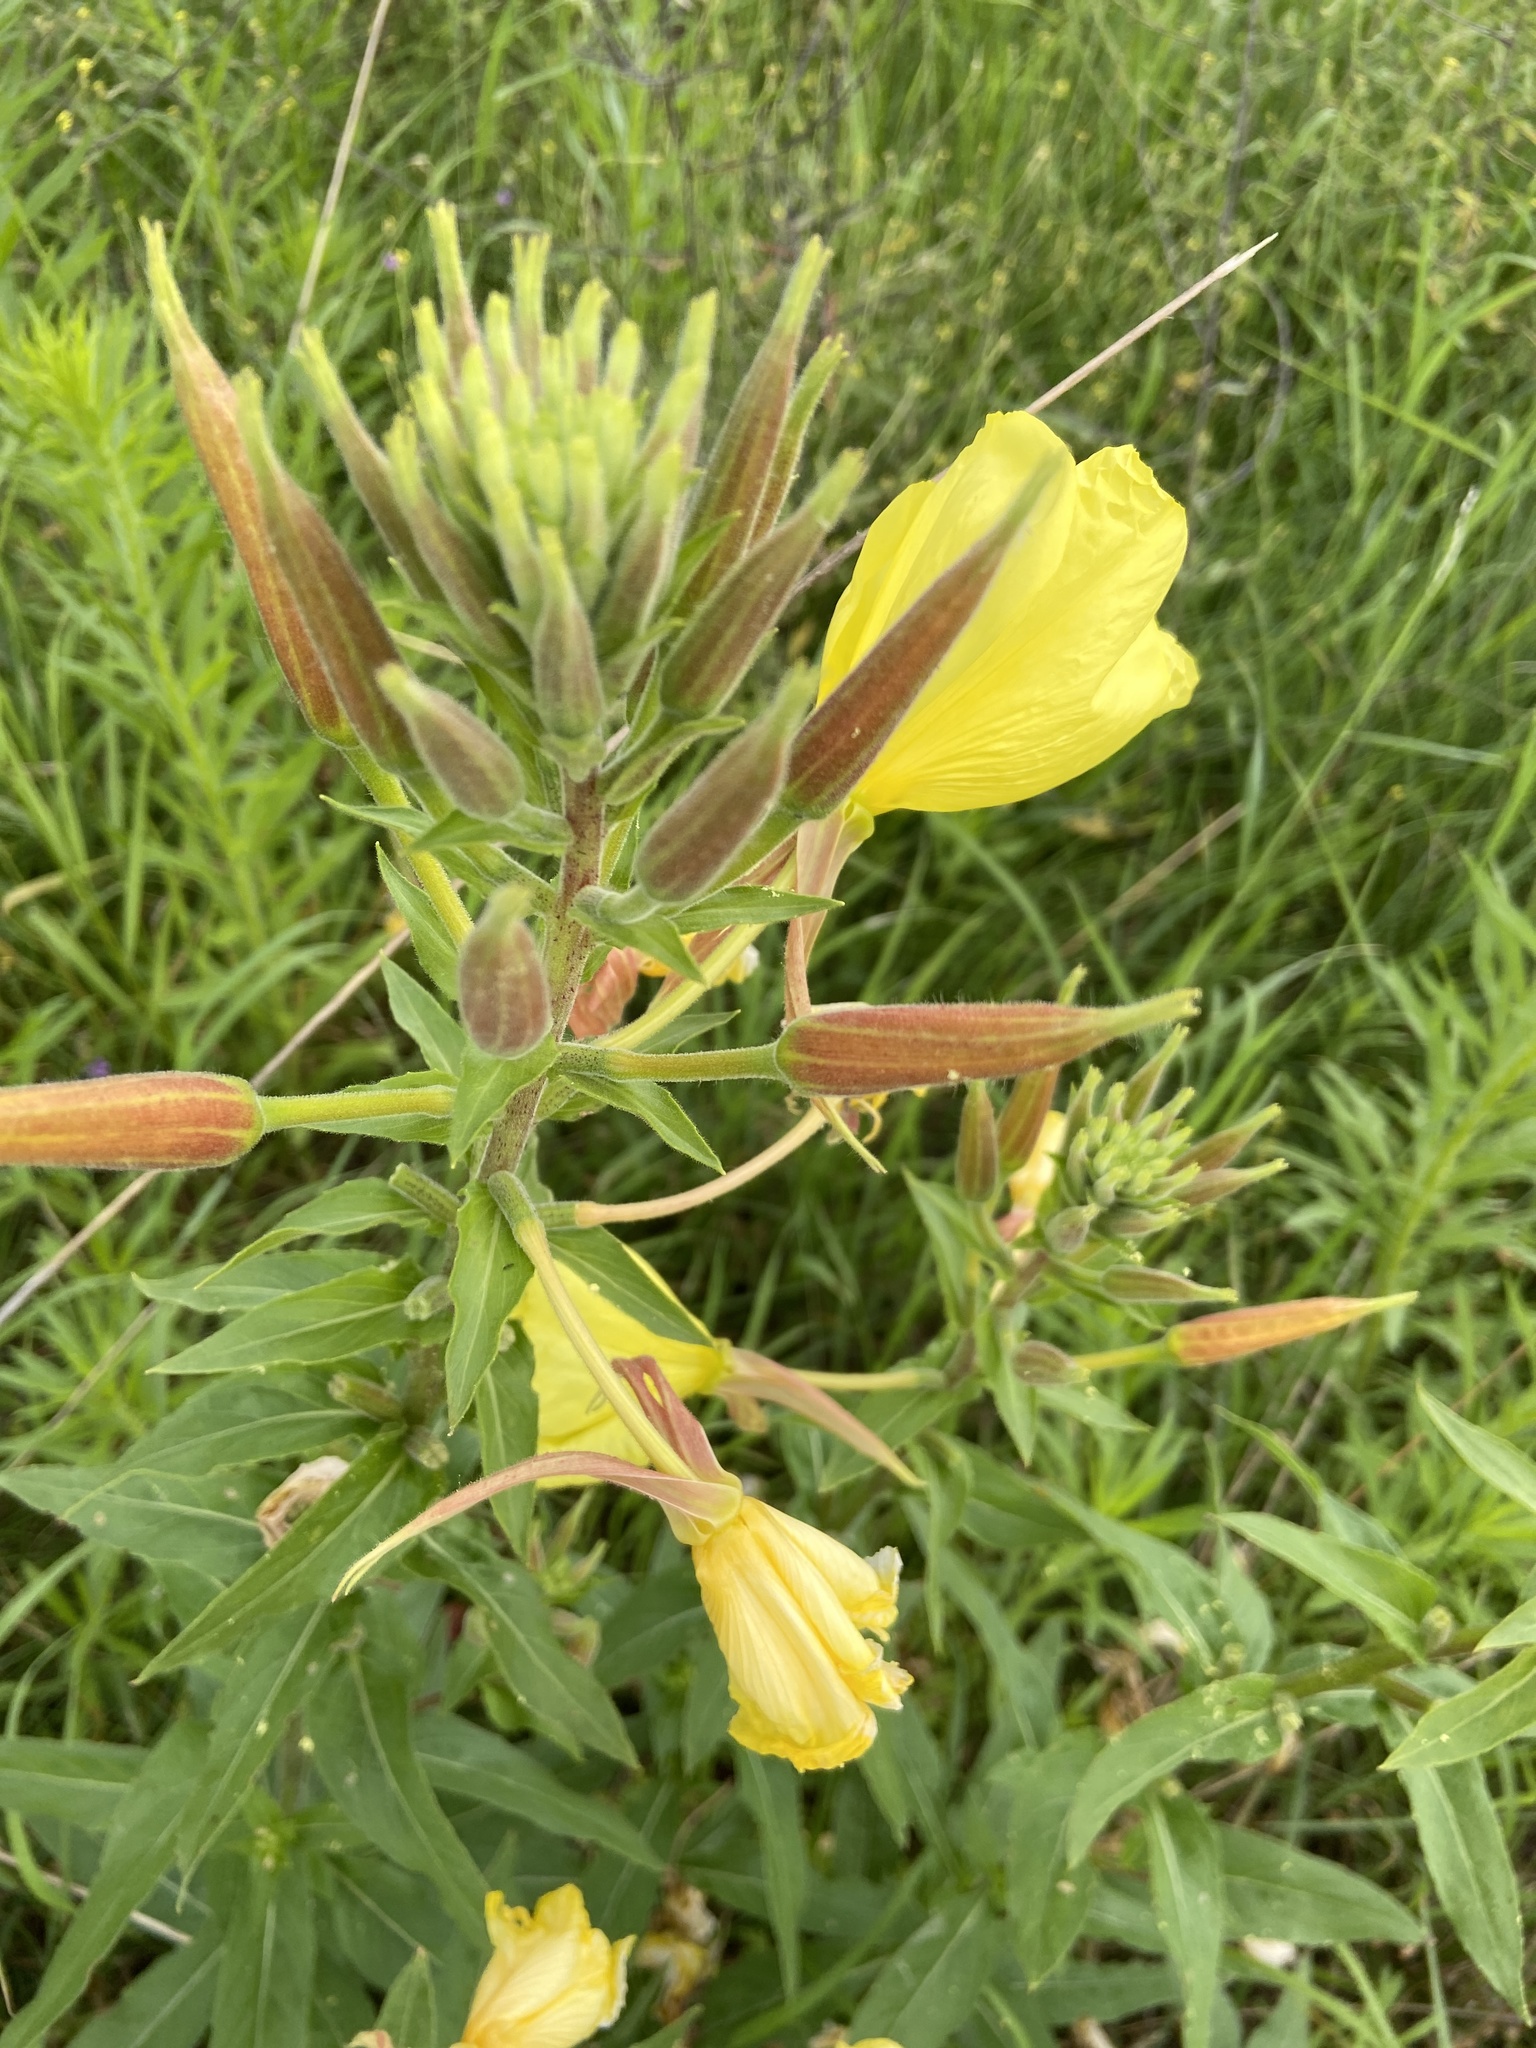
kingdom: Plantae
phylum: Tracheophyta
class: Magnoliopsida
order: Myrtales
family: Onagraceae
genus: Oenothera
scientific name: Oenothera glazioviana
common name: Large-flowered evening-primrose
